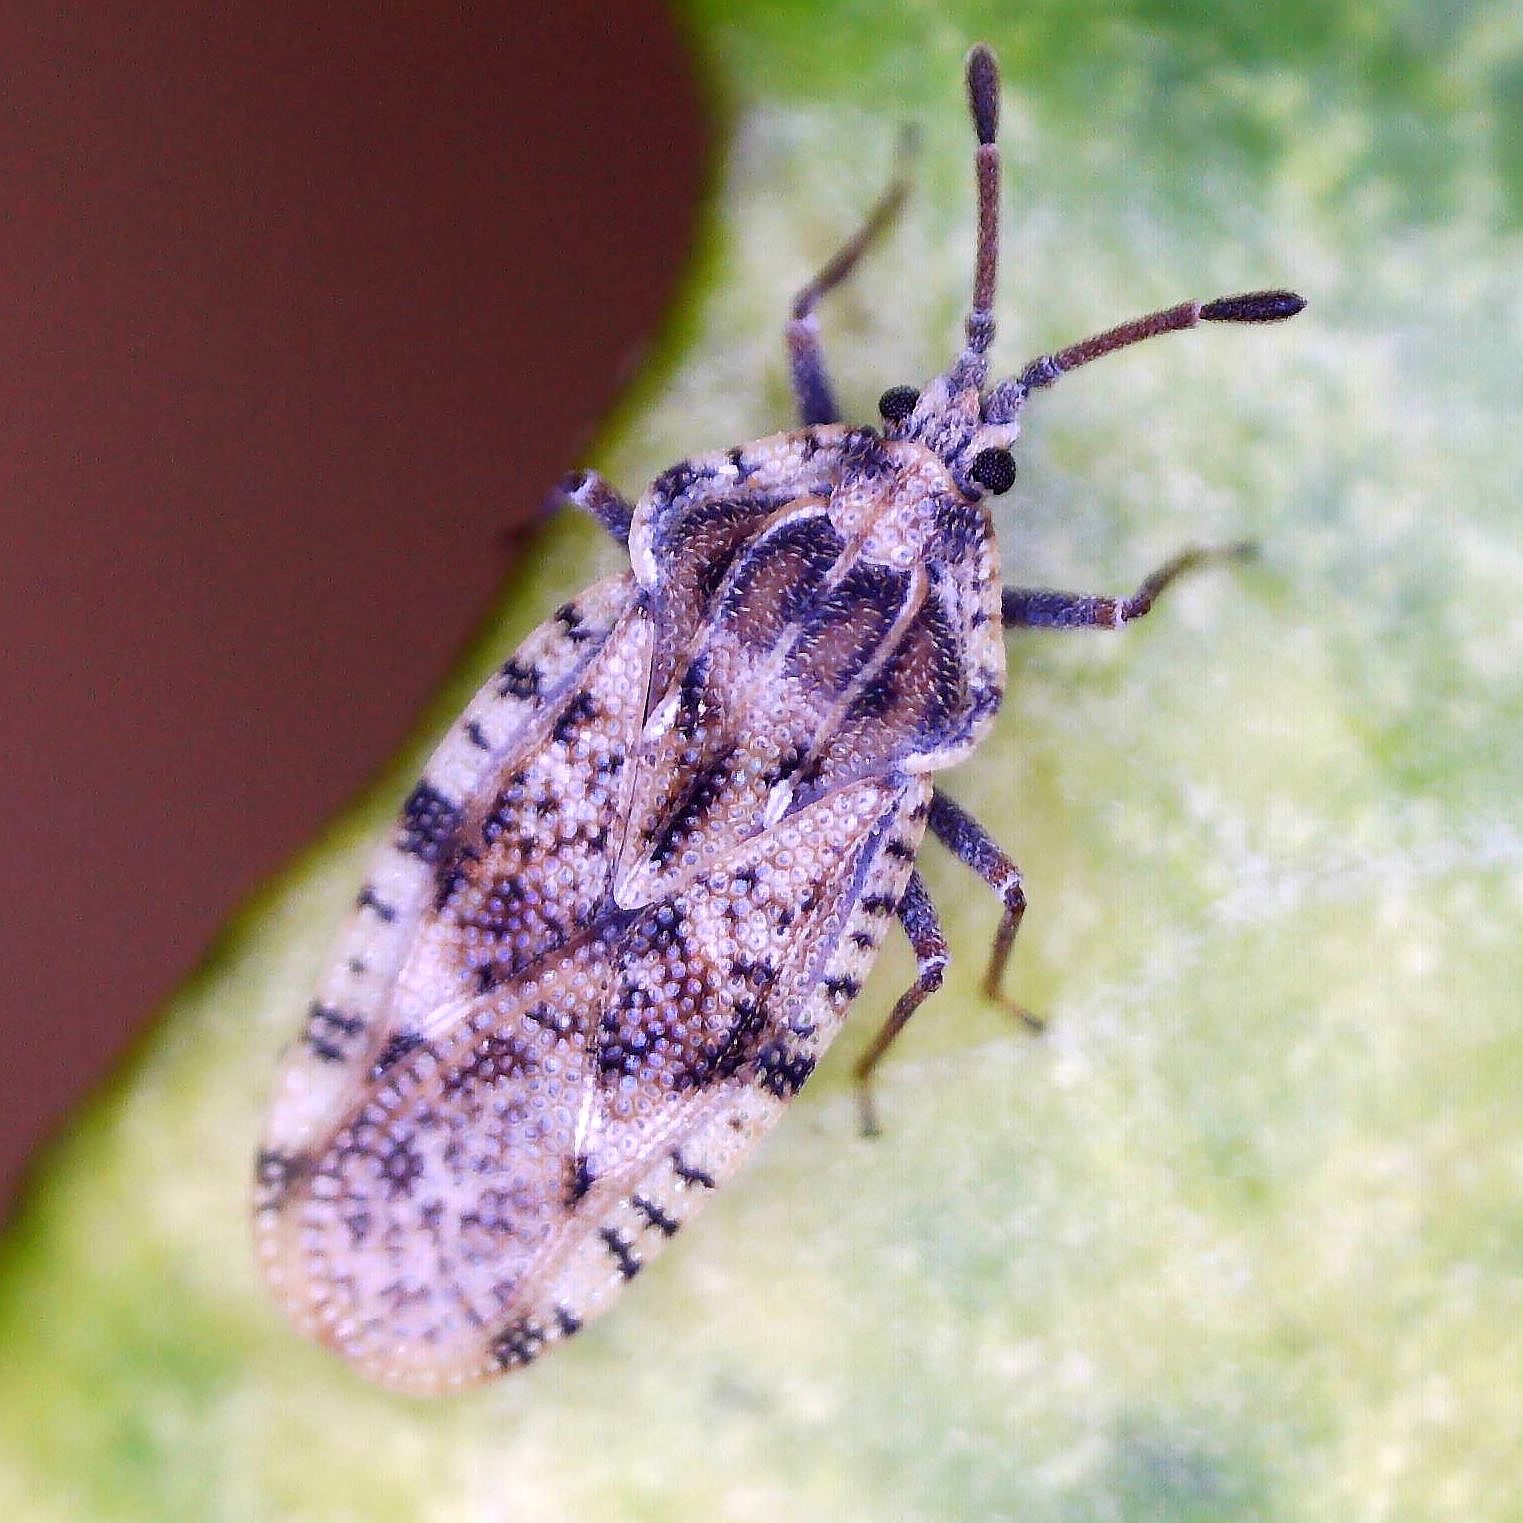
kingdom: Animalia
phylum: Arthropoda
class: Insecta
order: Hemiptera
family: Tingidae
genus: Tingis
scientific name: Tingis cardui
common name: Spear thistle lacebug
